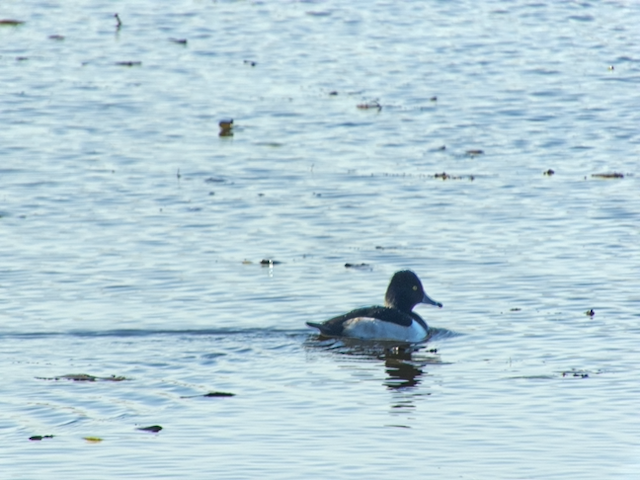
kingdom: Animalia
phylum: Chordata
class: Aves
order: Anseriformes
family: Anatidae
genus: Aythya
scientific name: Aythya collaris
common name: Ring-necked duck
